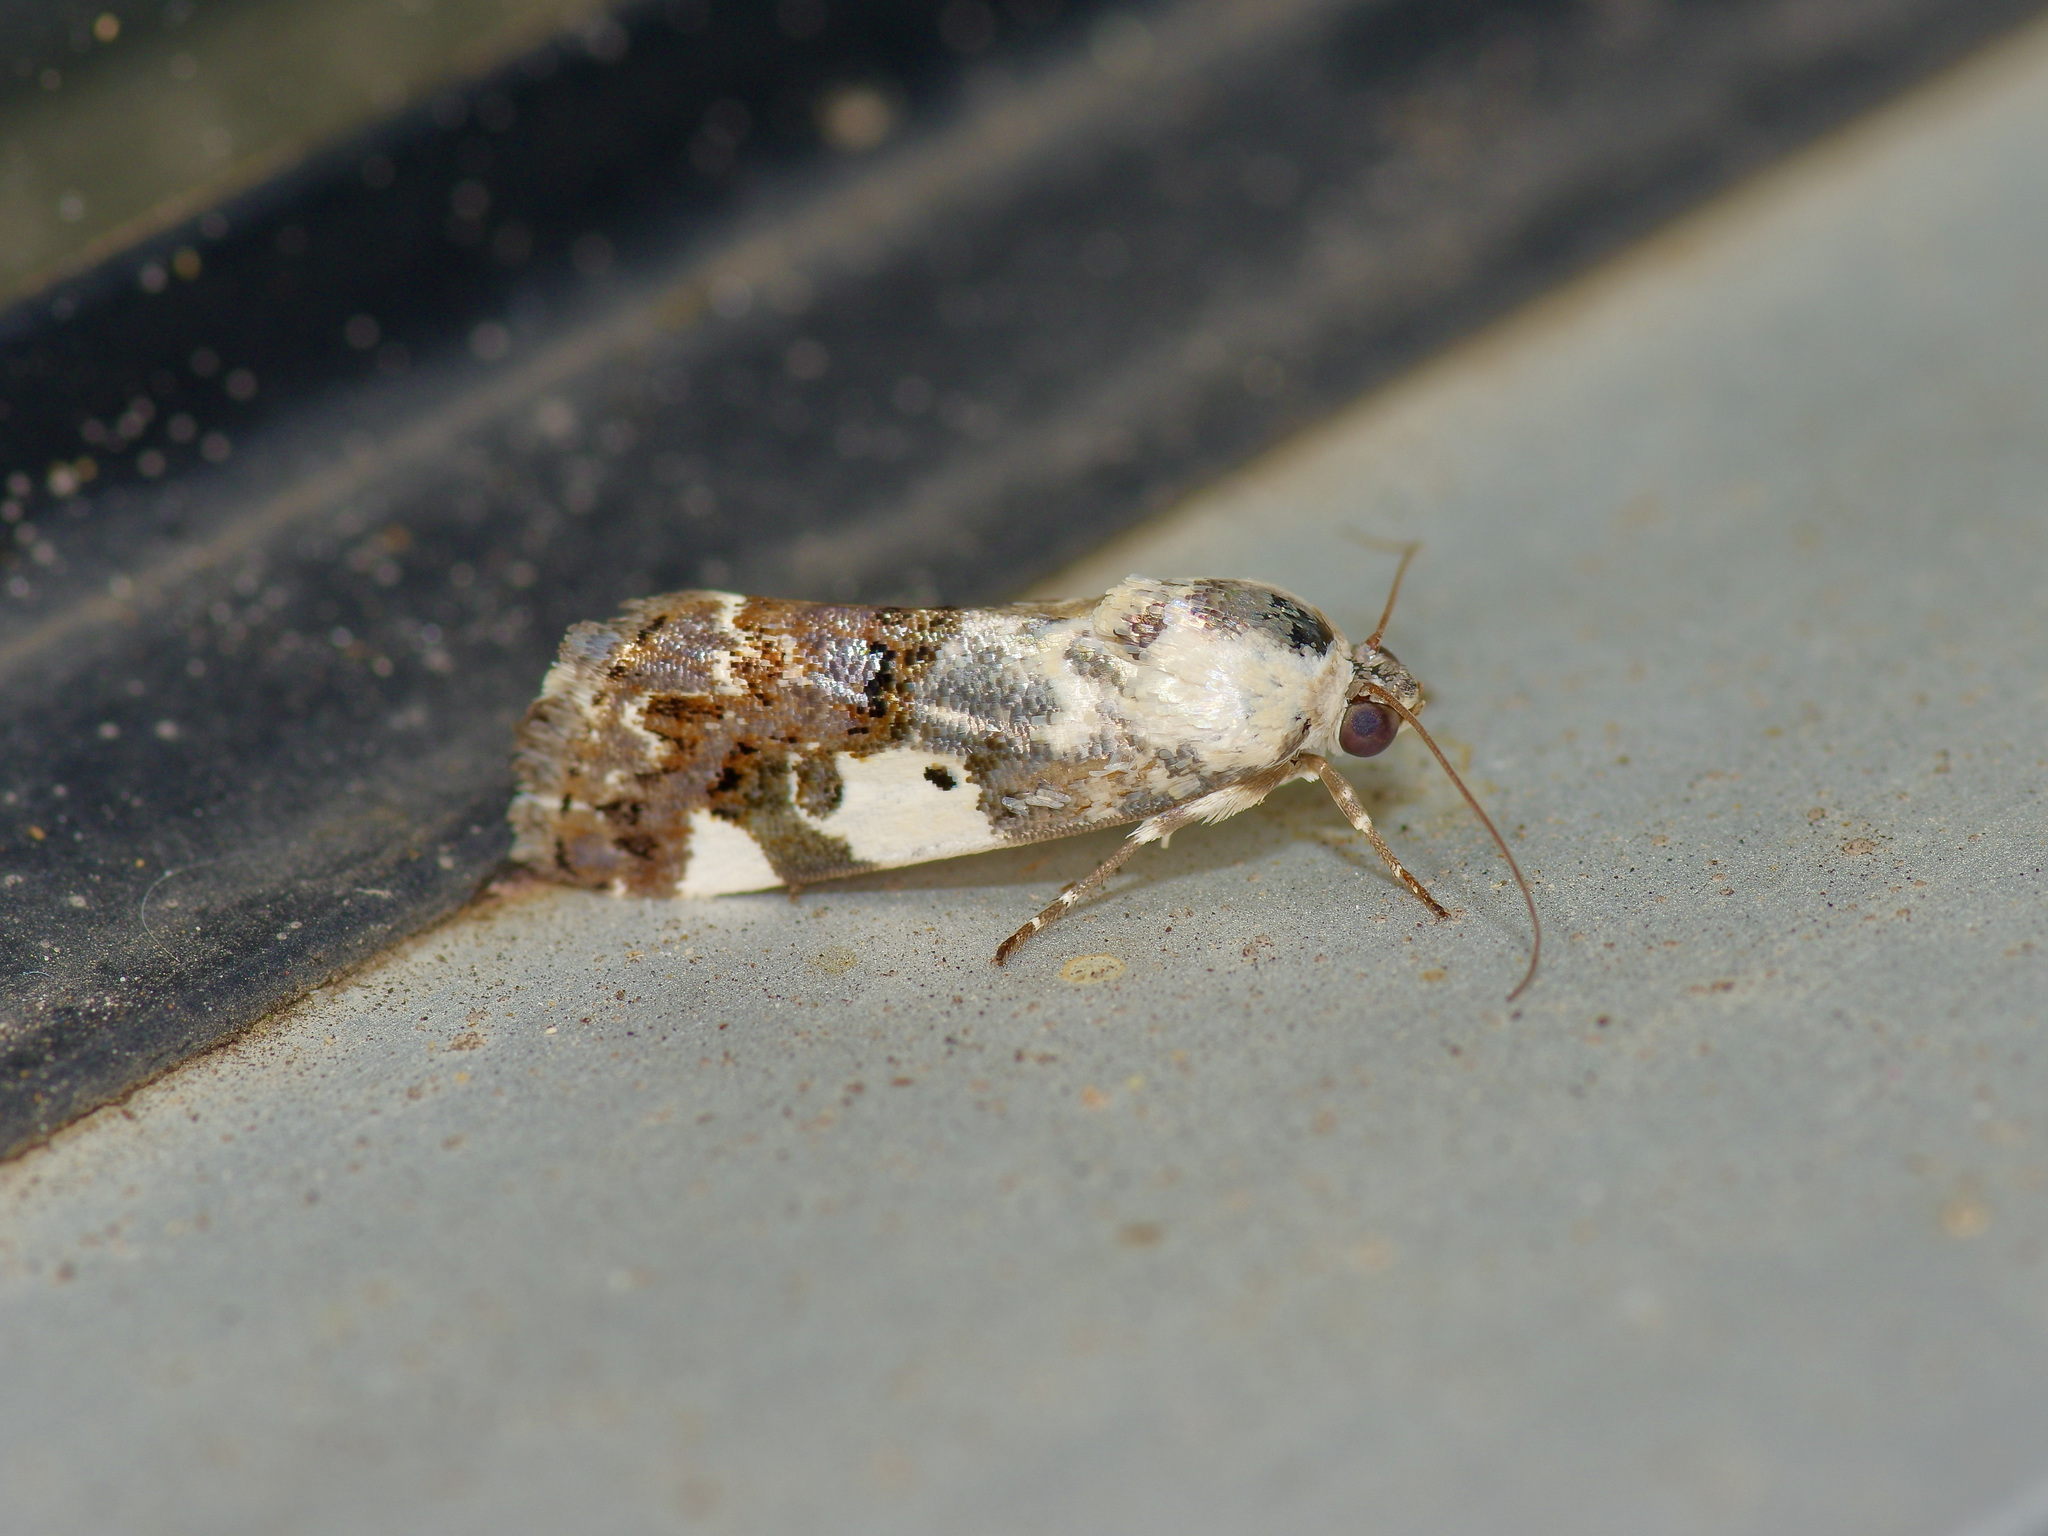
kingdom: Animalia
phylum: Arthropoda
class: Insecta
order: Lepidoptera
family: Noctuidae
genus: Acontia
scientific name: Acontia aprica
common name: Nun
